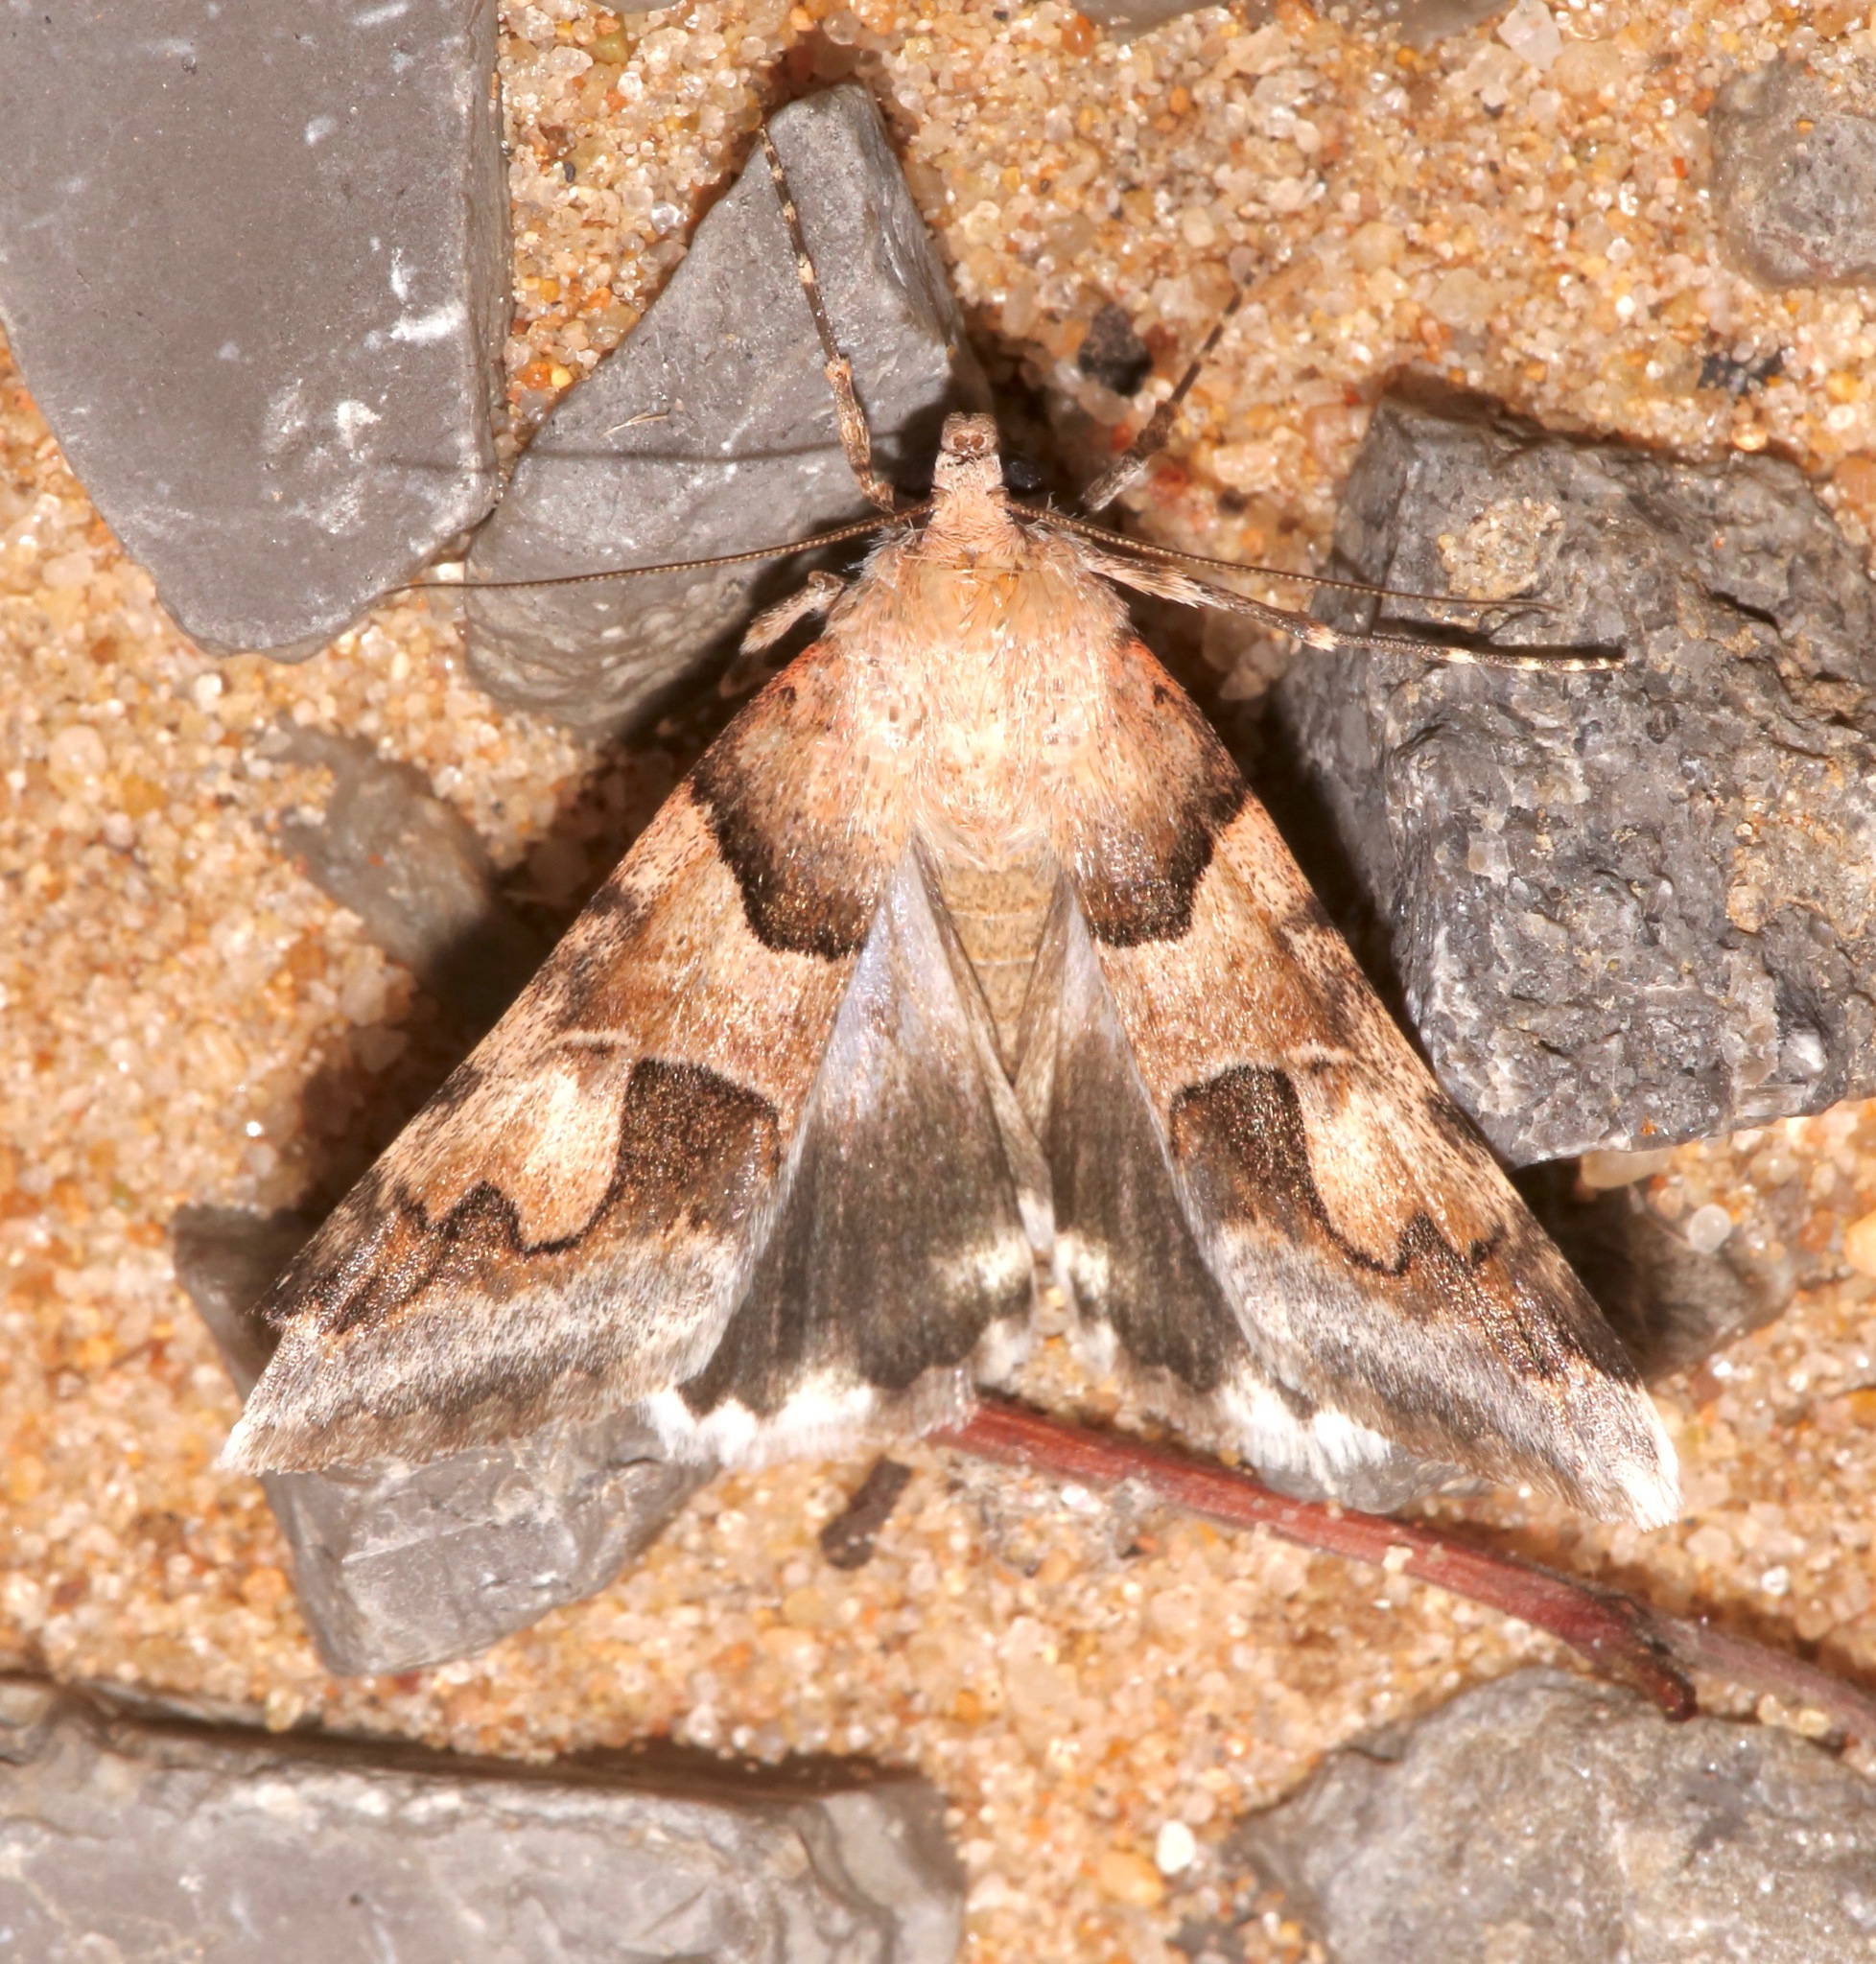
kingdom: Animalia
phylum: Arthropoda
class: Insecta
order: Lepidoptera
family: Erebidae
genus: Drasteria
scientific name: Drasteria pallescens
